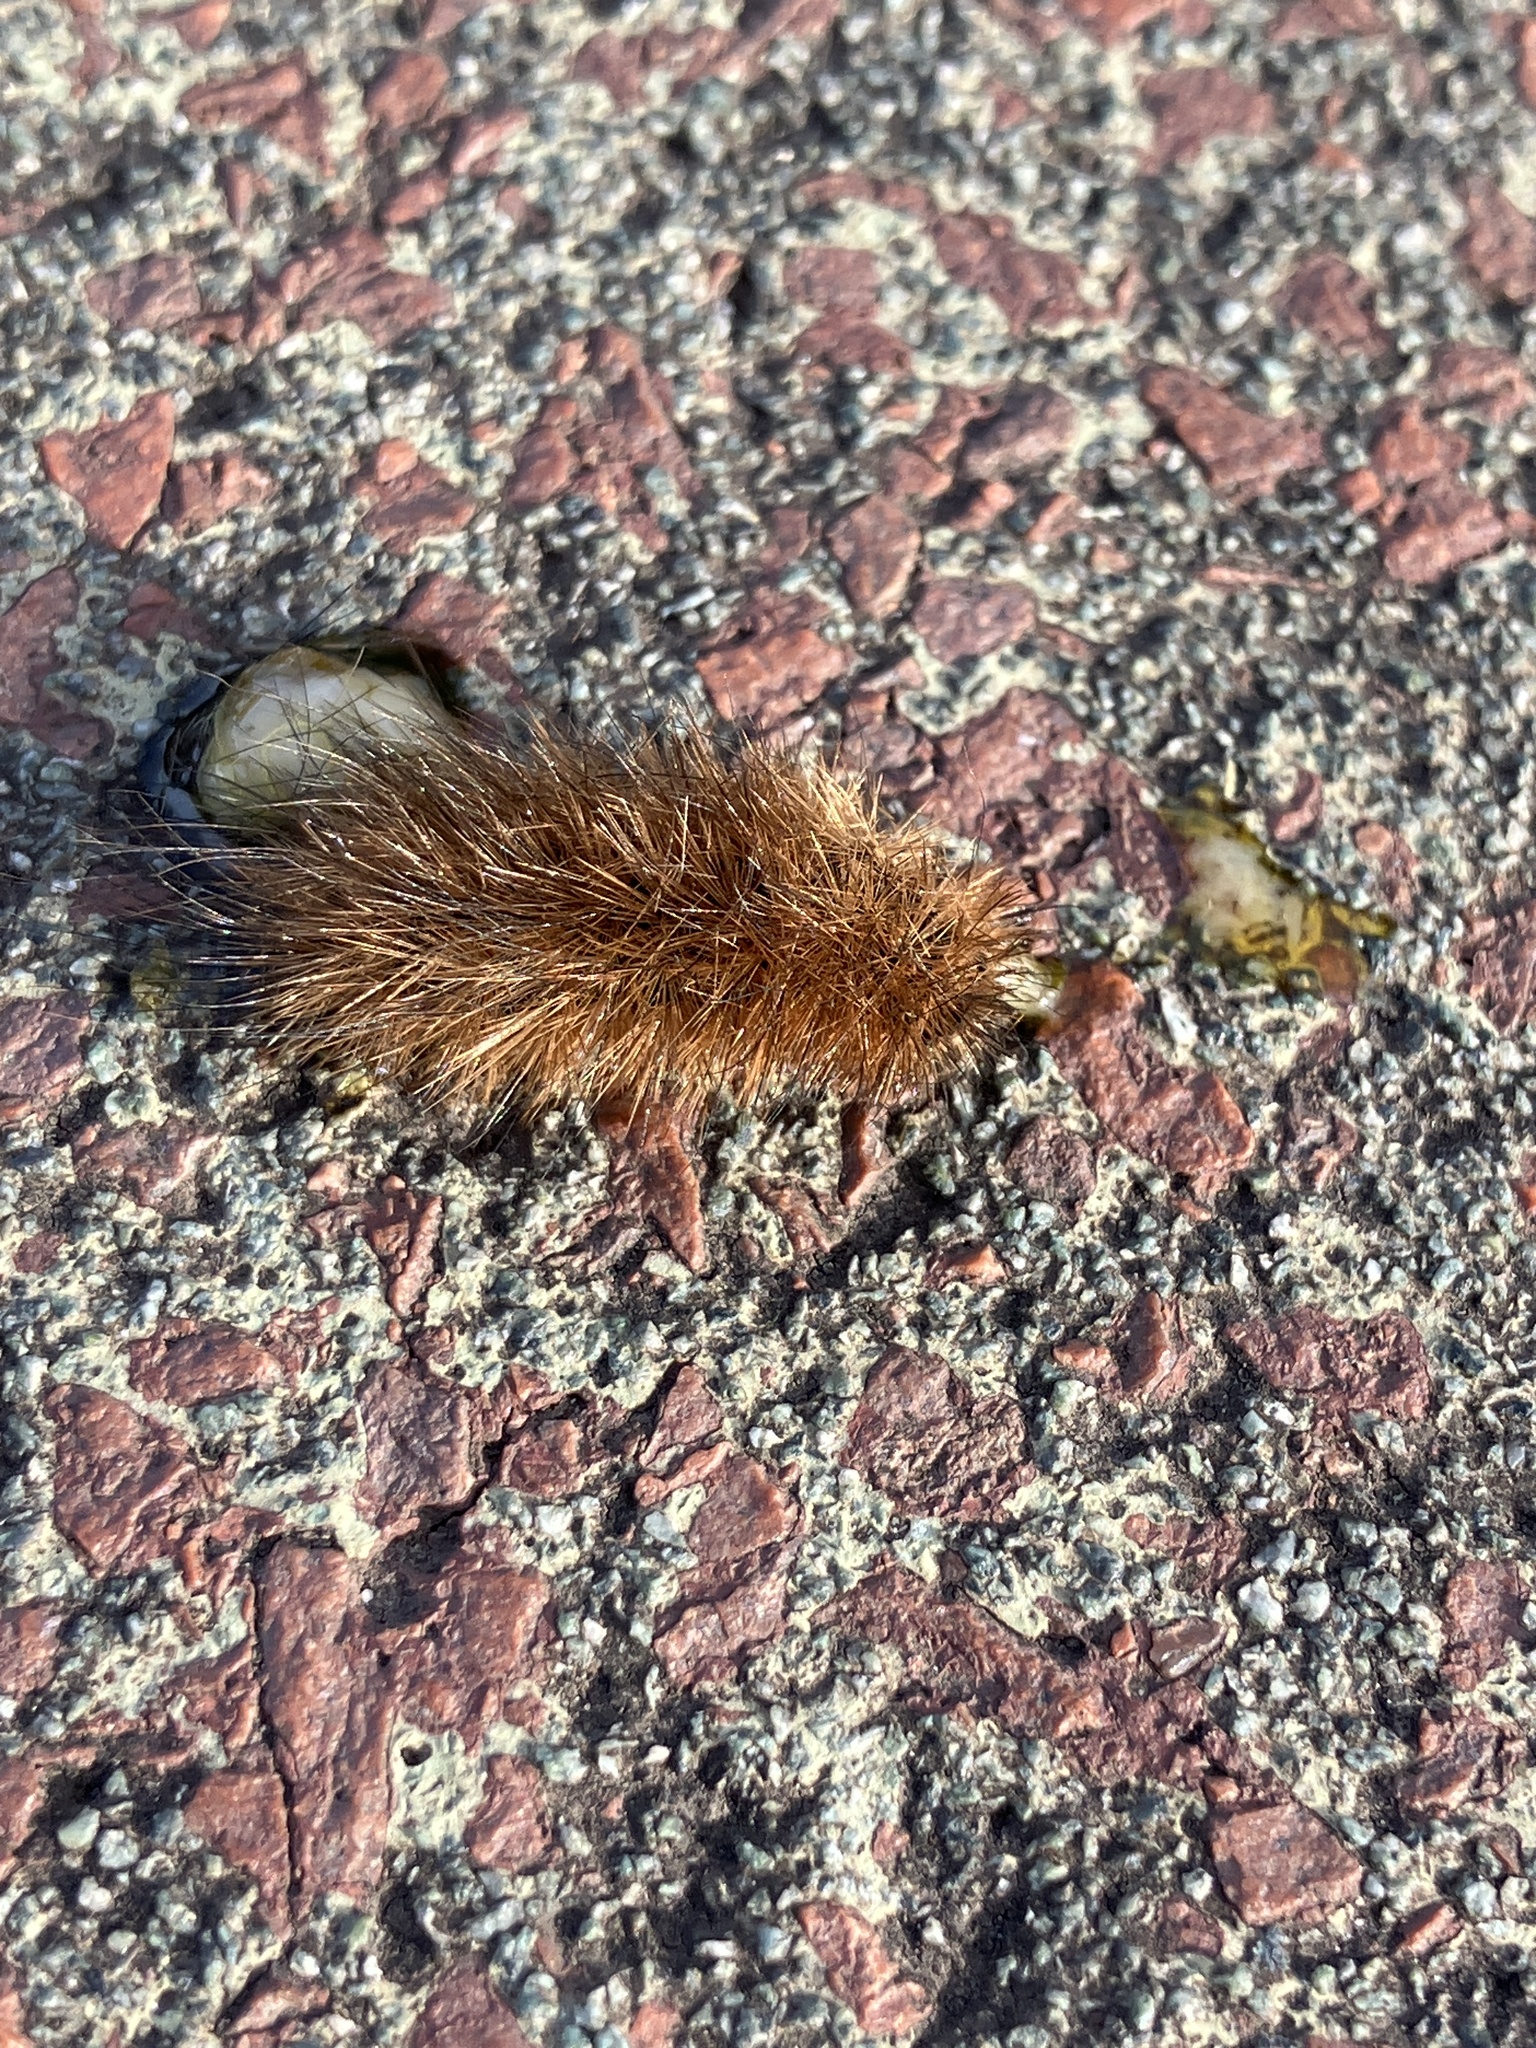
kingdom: Animalia
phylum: Arthropoda
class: Insecta
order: Lepidoptera
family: Erebidae
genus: Phragmatobia
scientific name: Phragmatobia fuliginosa
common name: Ruby tiger
